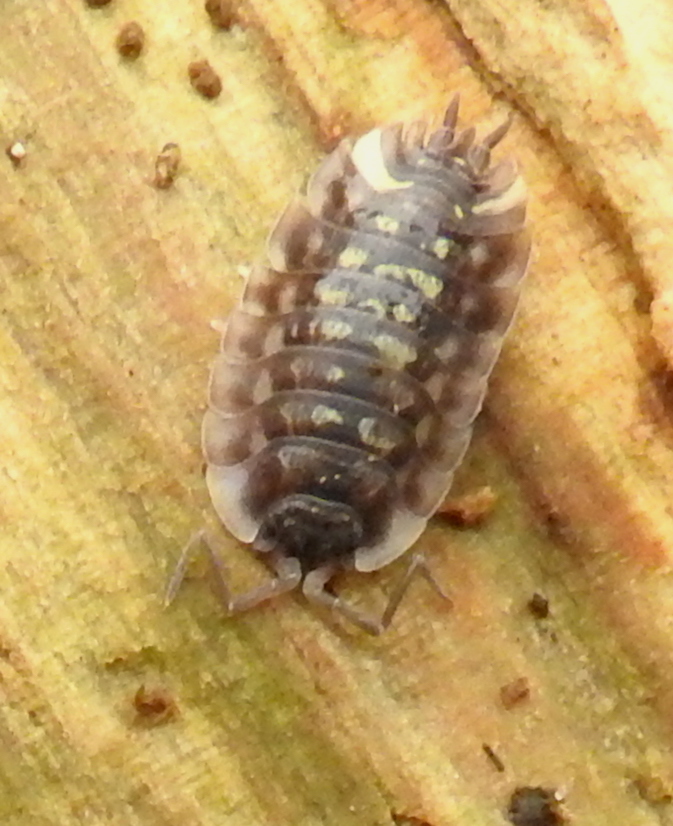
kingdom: Animalia
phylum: Arthropoda
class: Malacostraca
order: Isopoda
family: Oniscidae
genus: Oniscus
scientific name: Oniscus asellus
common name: Common shiny woodlouse
